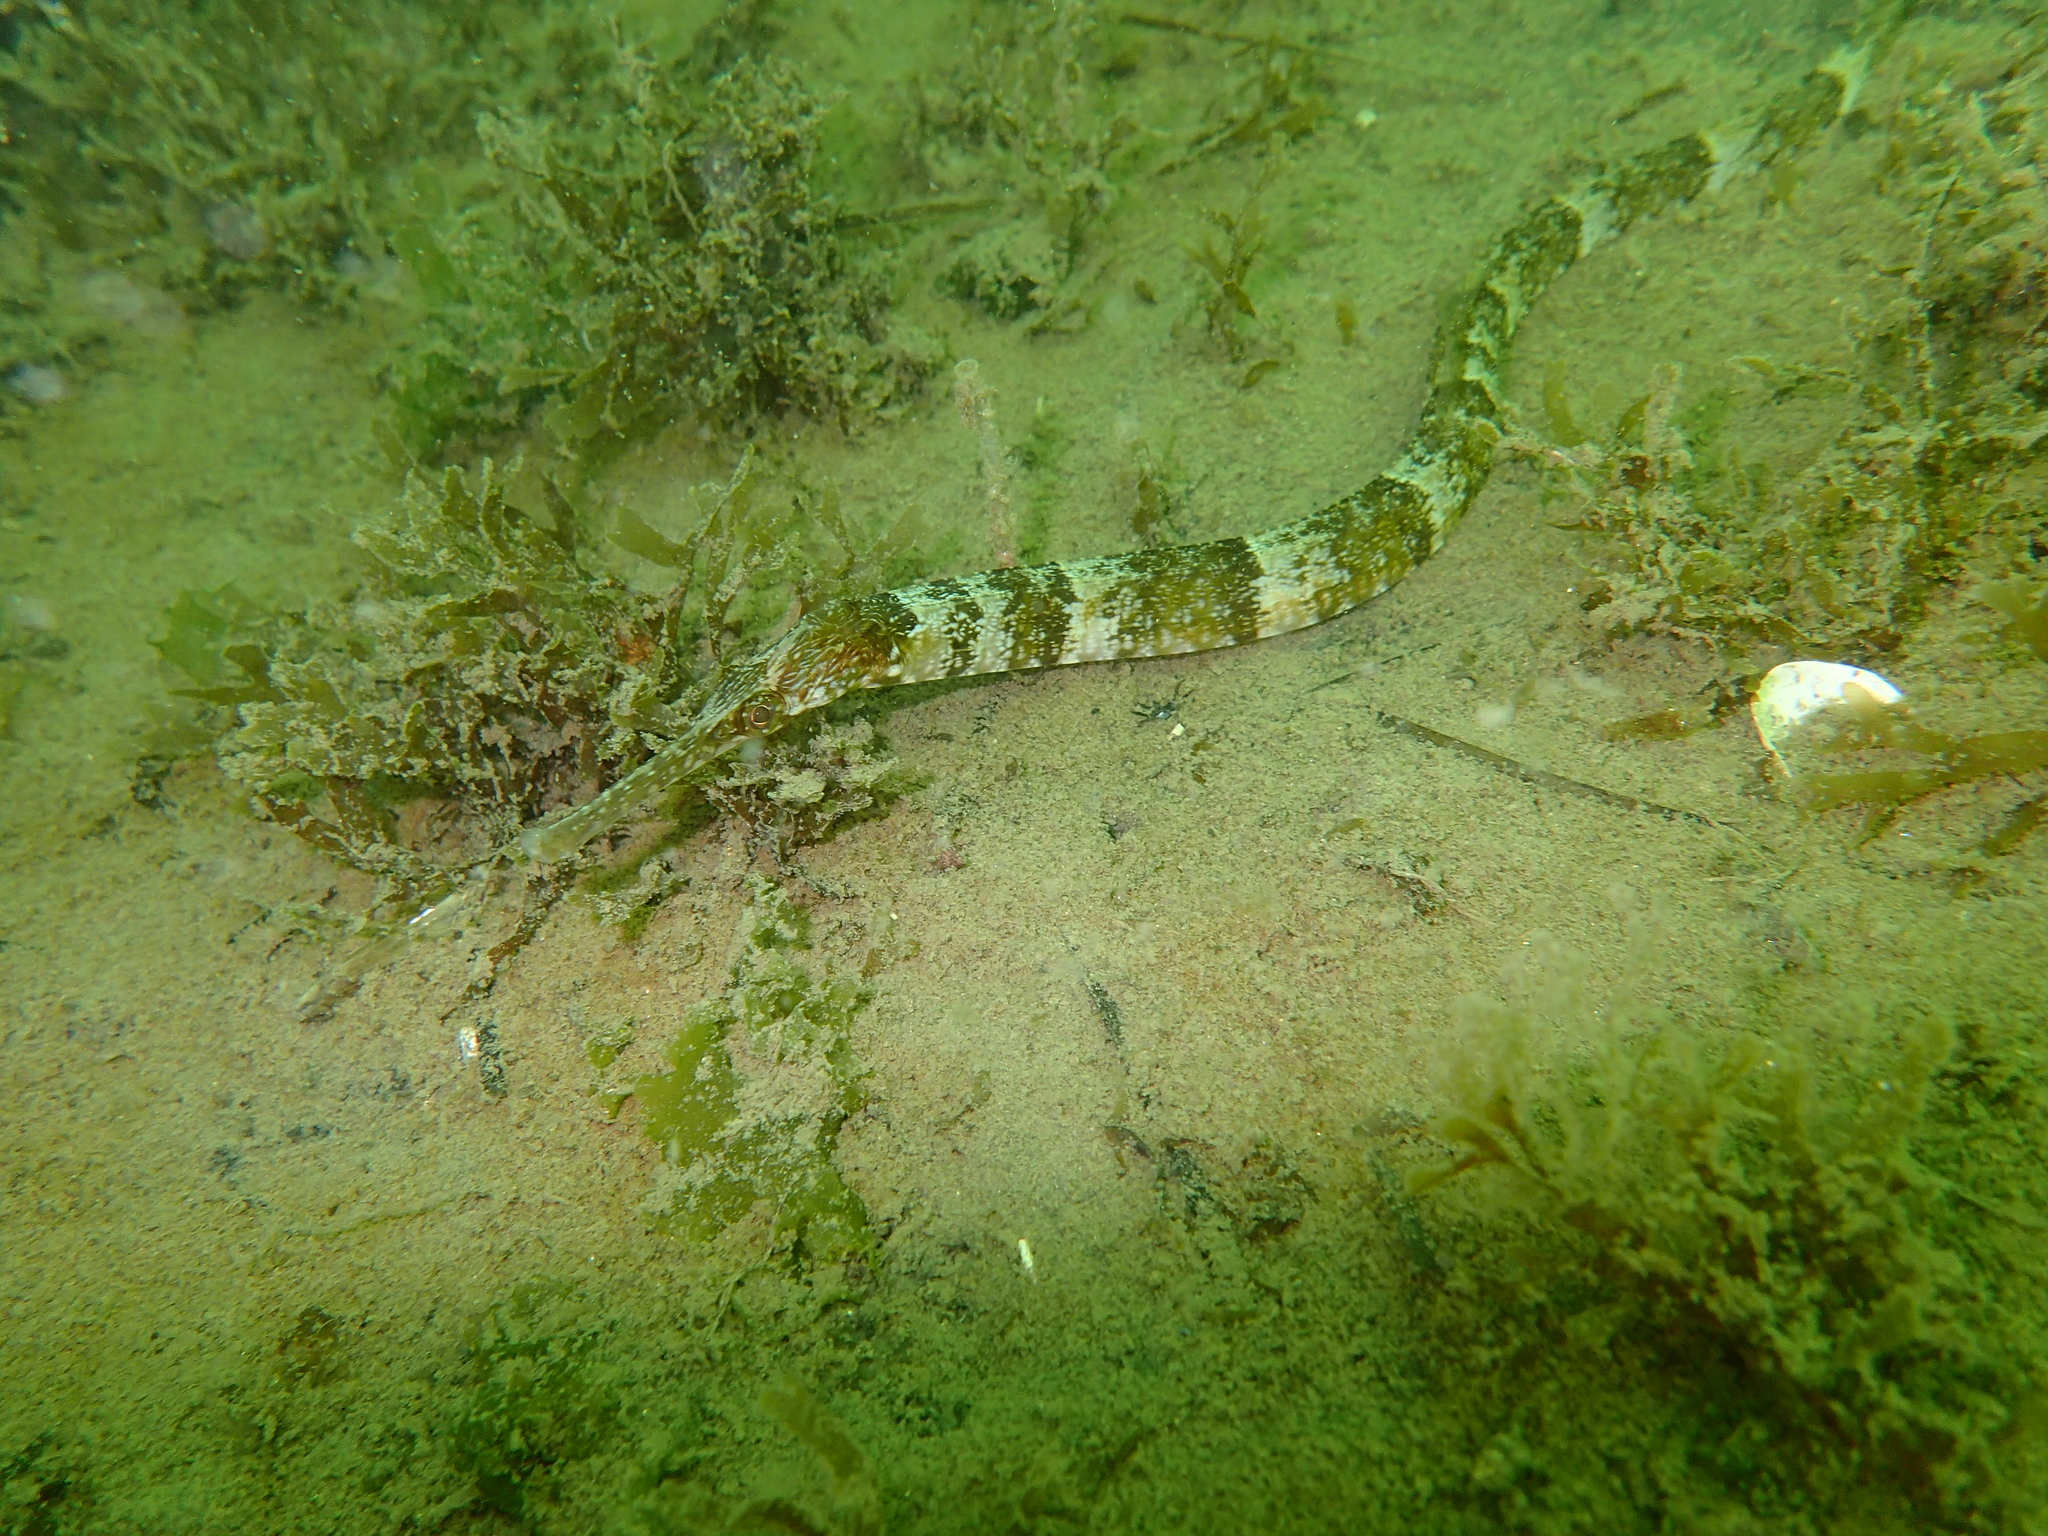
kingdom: Animalia
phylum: Chordata
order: Syngnathiformes
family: Syngnathidae
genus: Syngnathus
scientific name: Syngnathus tenuirostris
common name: Narrow-snouted pipefish
